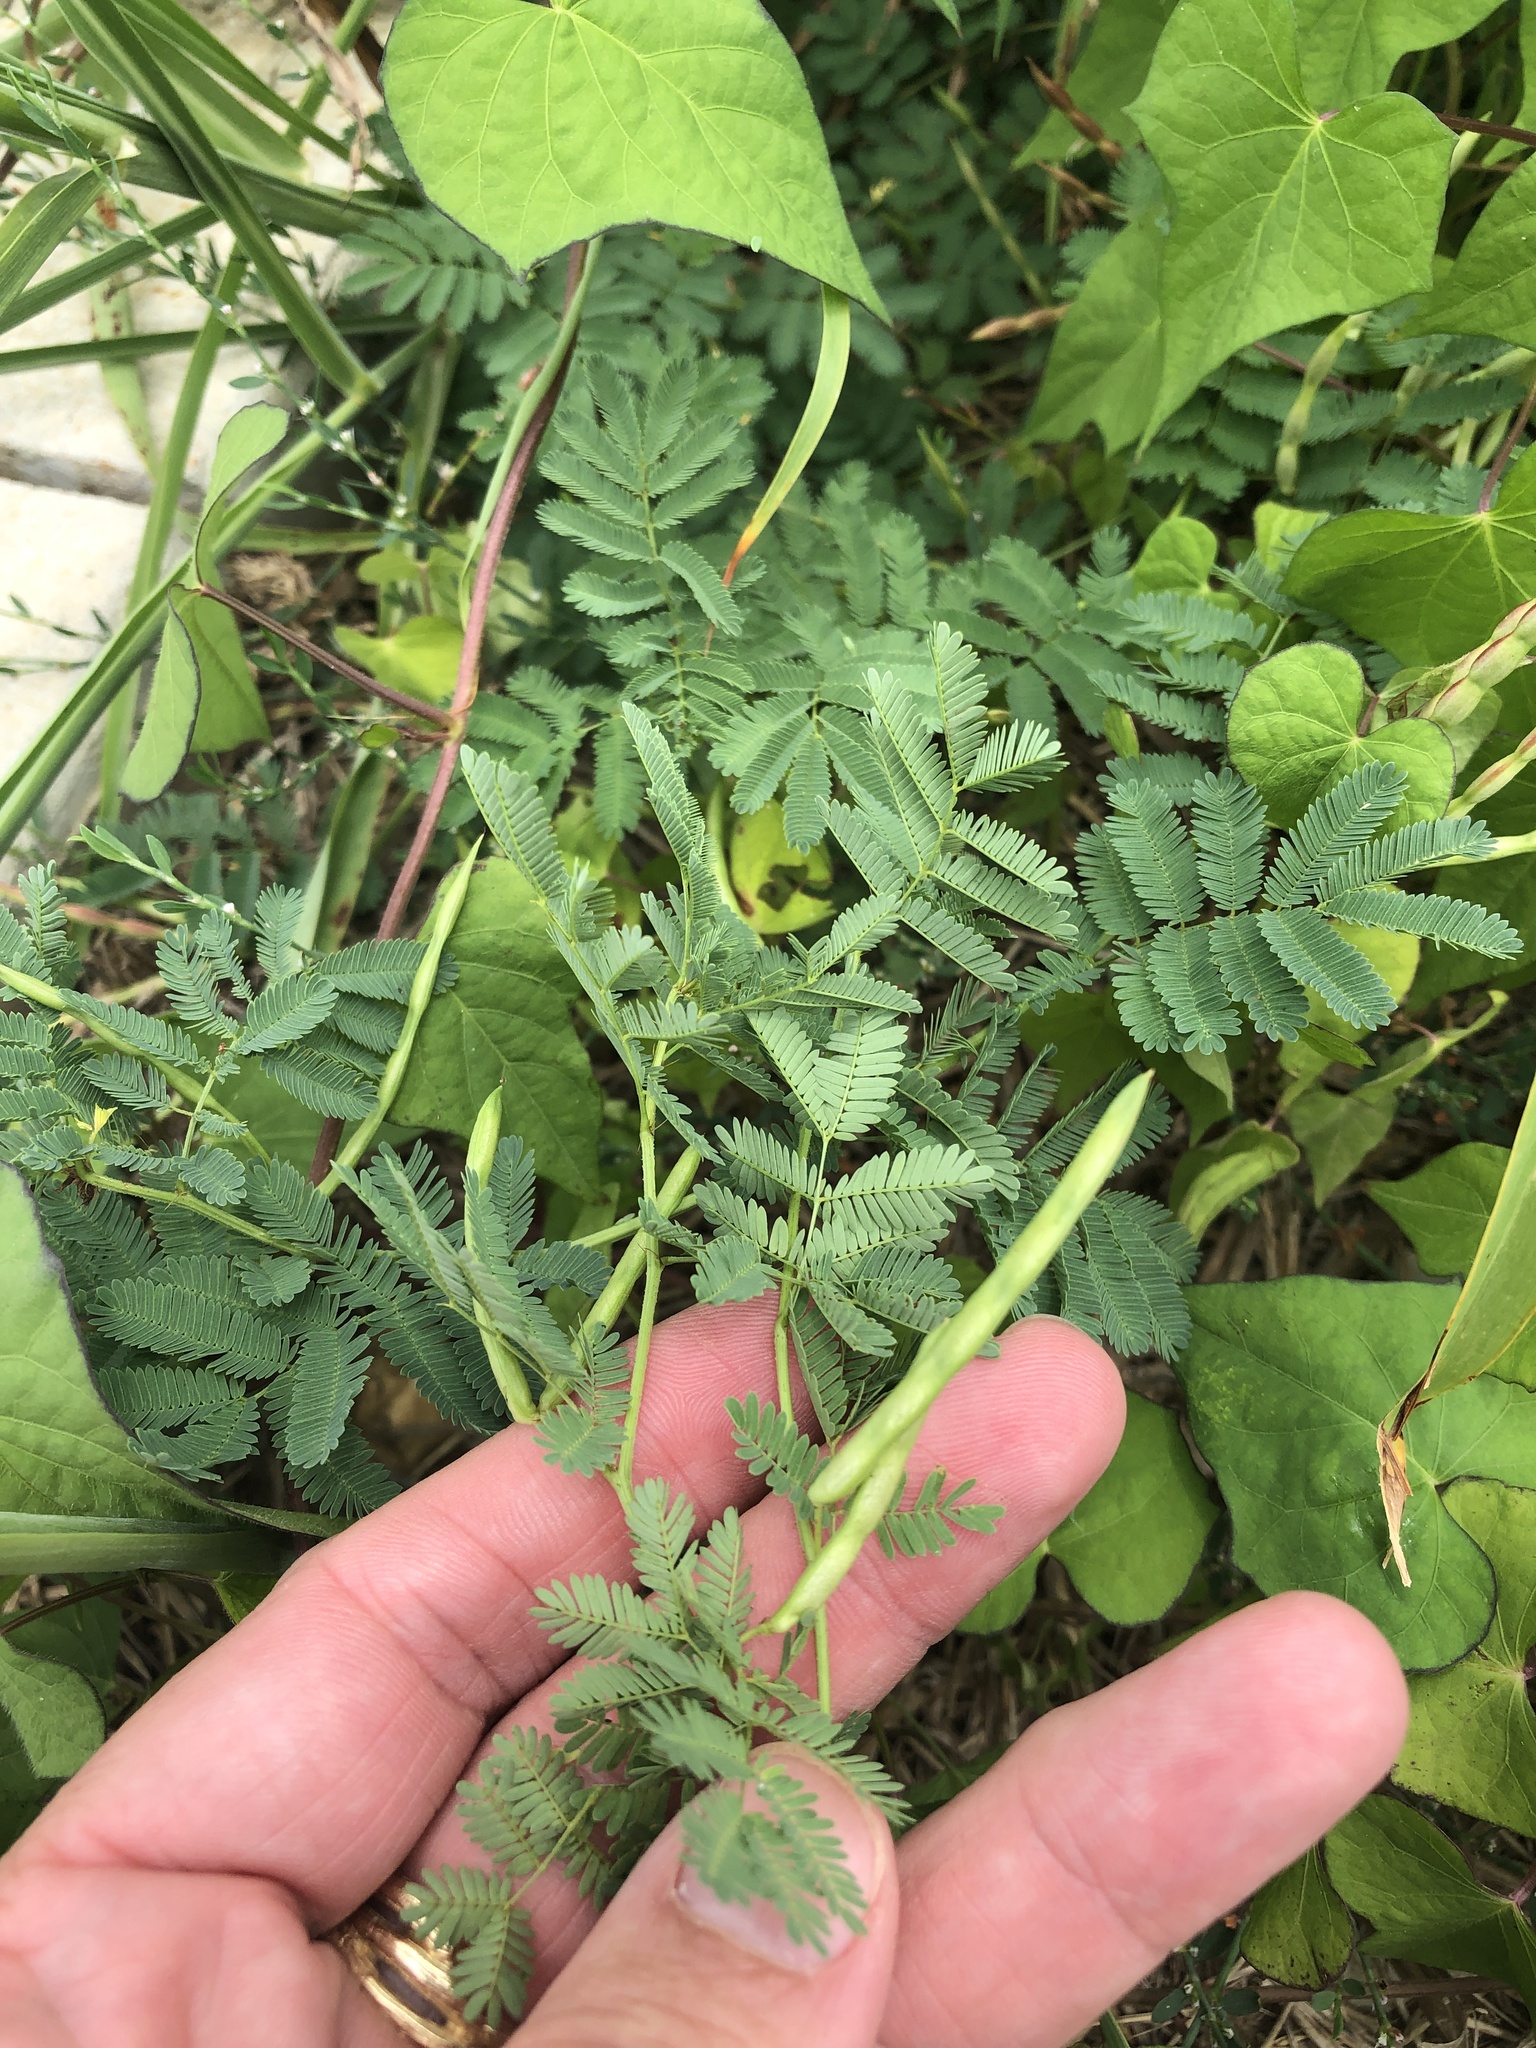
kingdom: Plantae
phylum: Tracheophyta
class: Magnoliopsida
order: Fabales
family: Fabaceae
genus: Desmanthus
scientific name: Desmanthus leptolobus
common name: Prairie-mimosa
